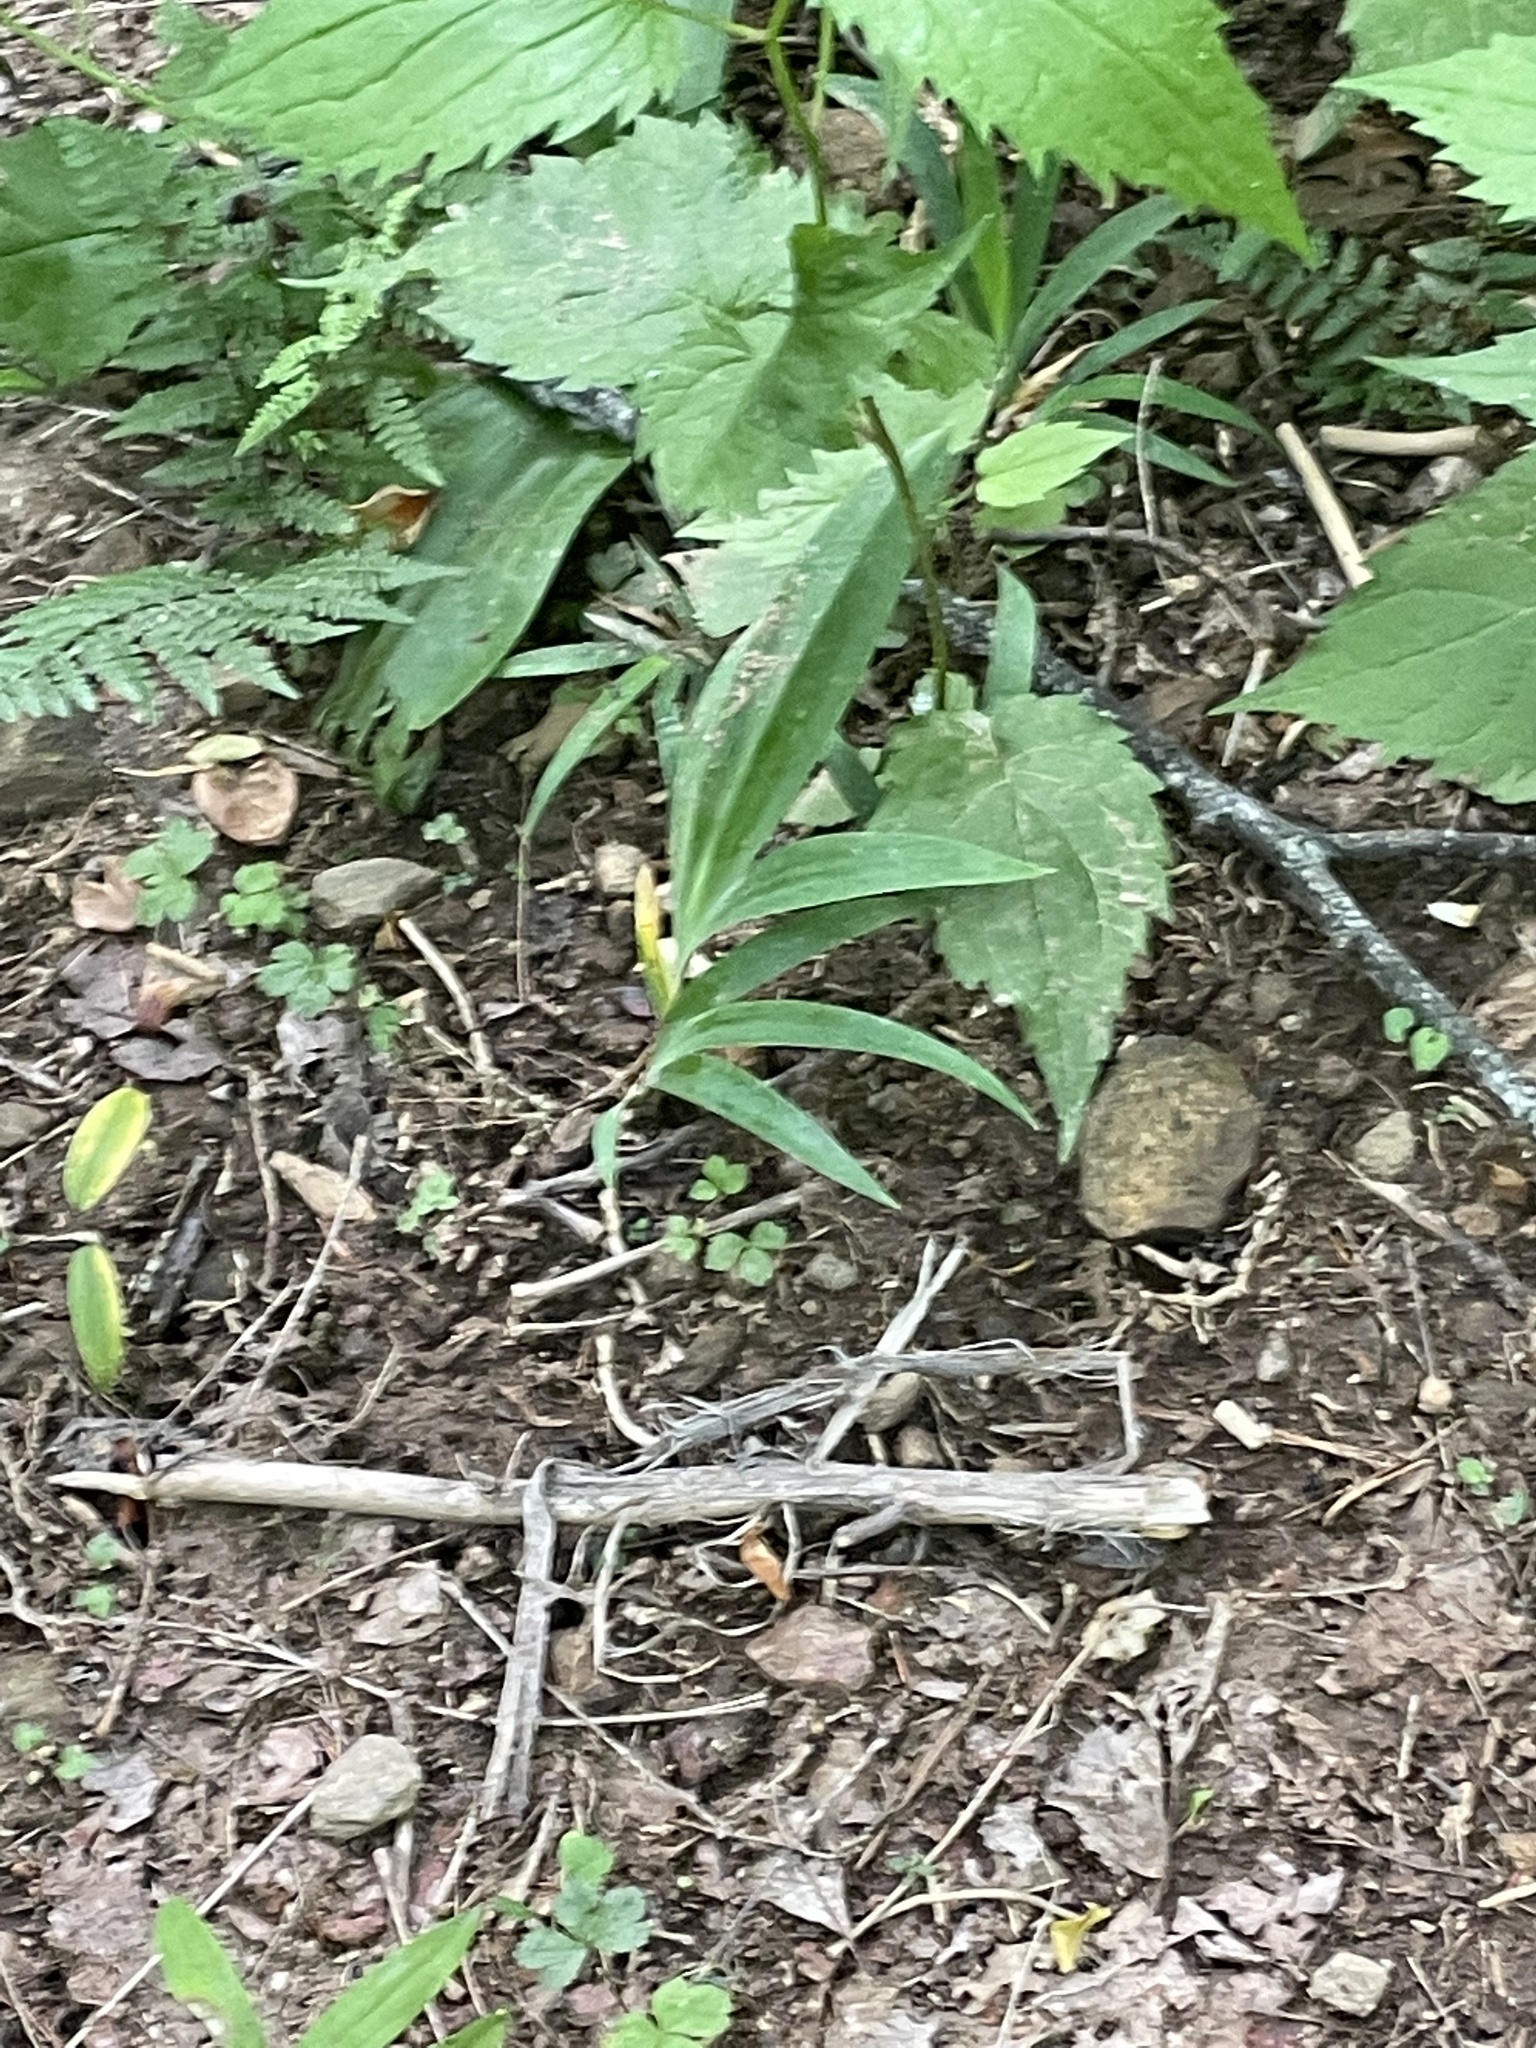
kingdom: Plantae
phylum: Tracheophyta
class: Liliopsida
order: Asparagales
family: Iridaceae
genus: Iris
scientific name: Iris cristata
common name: Crested iris
